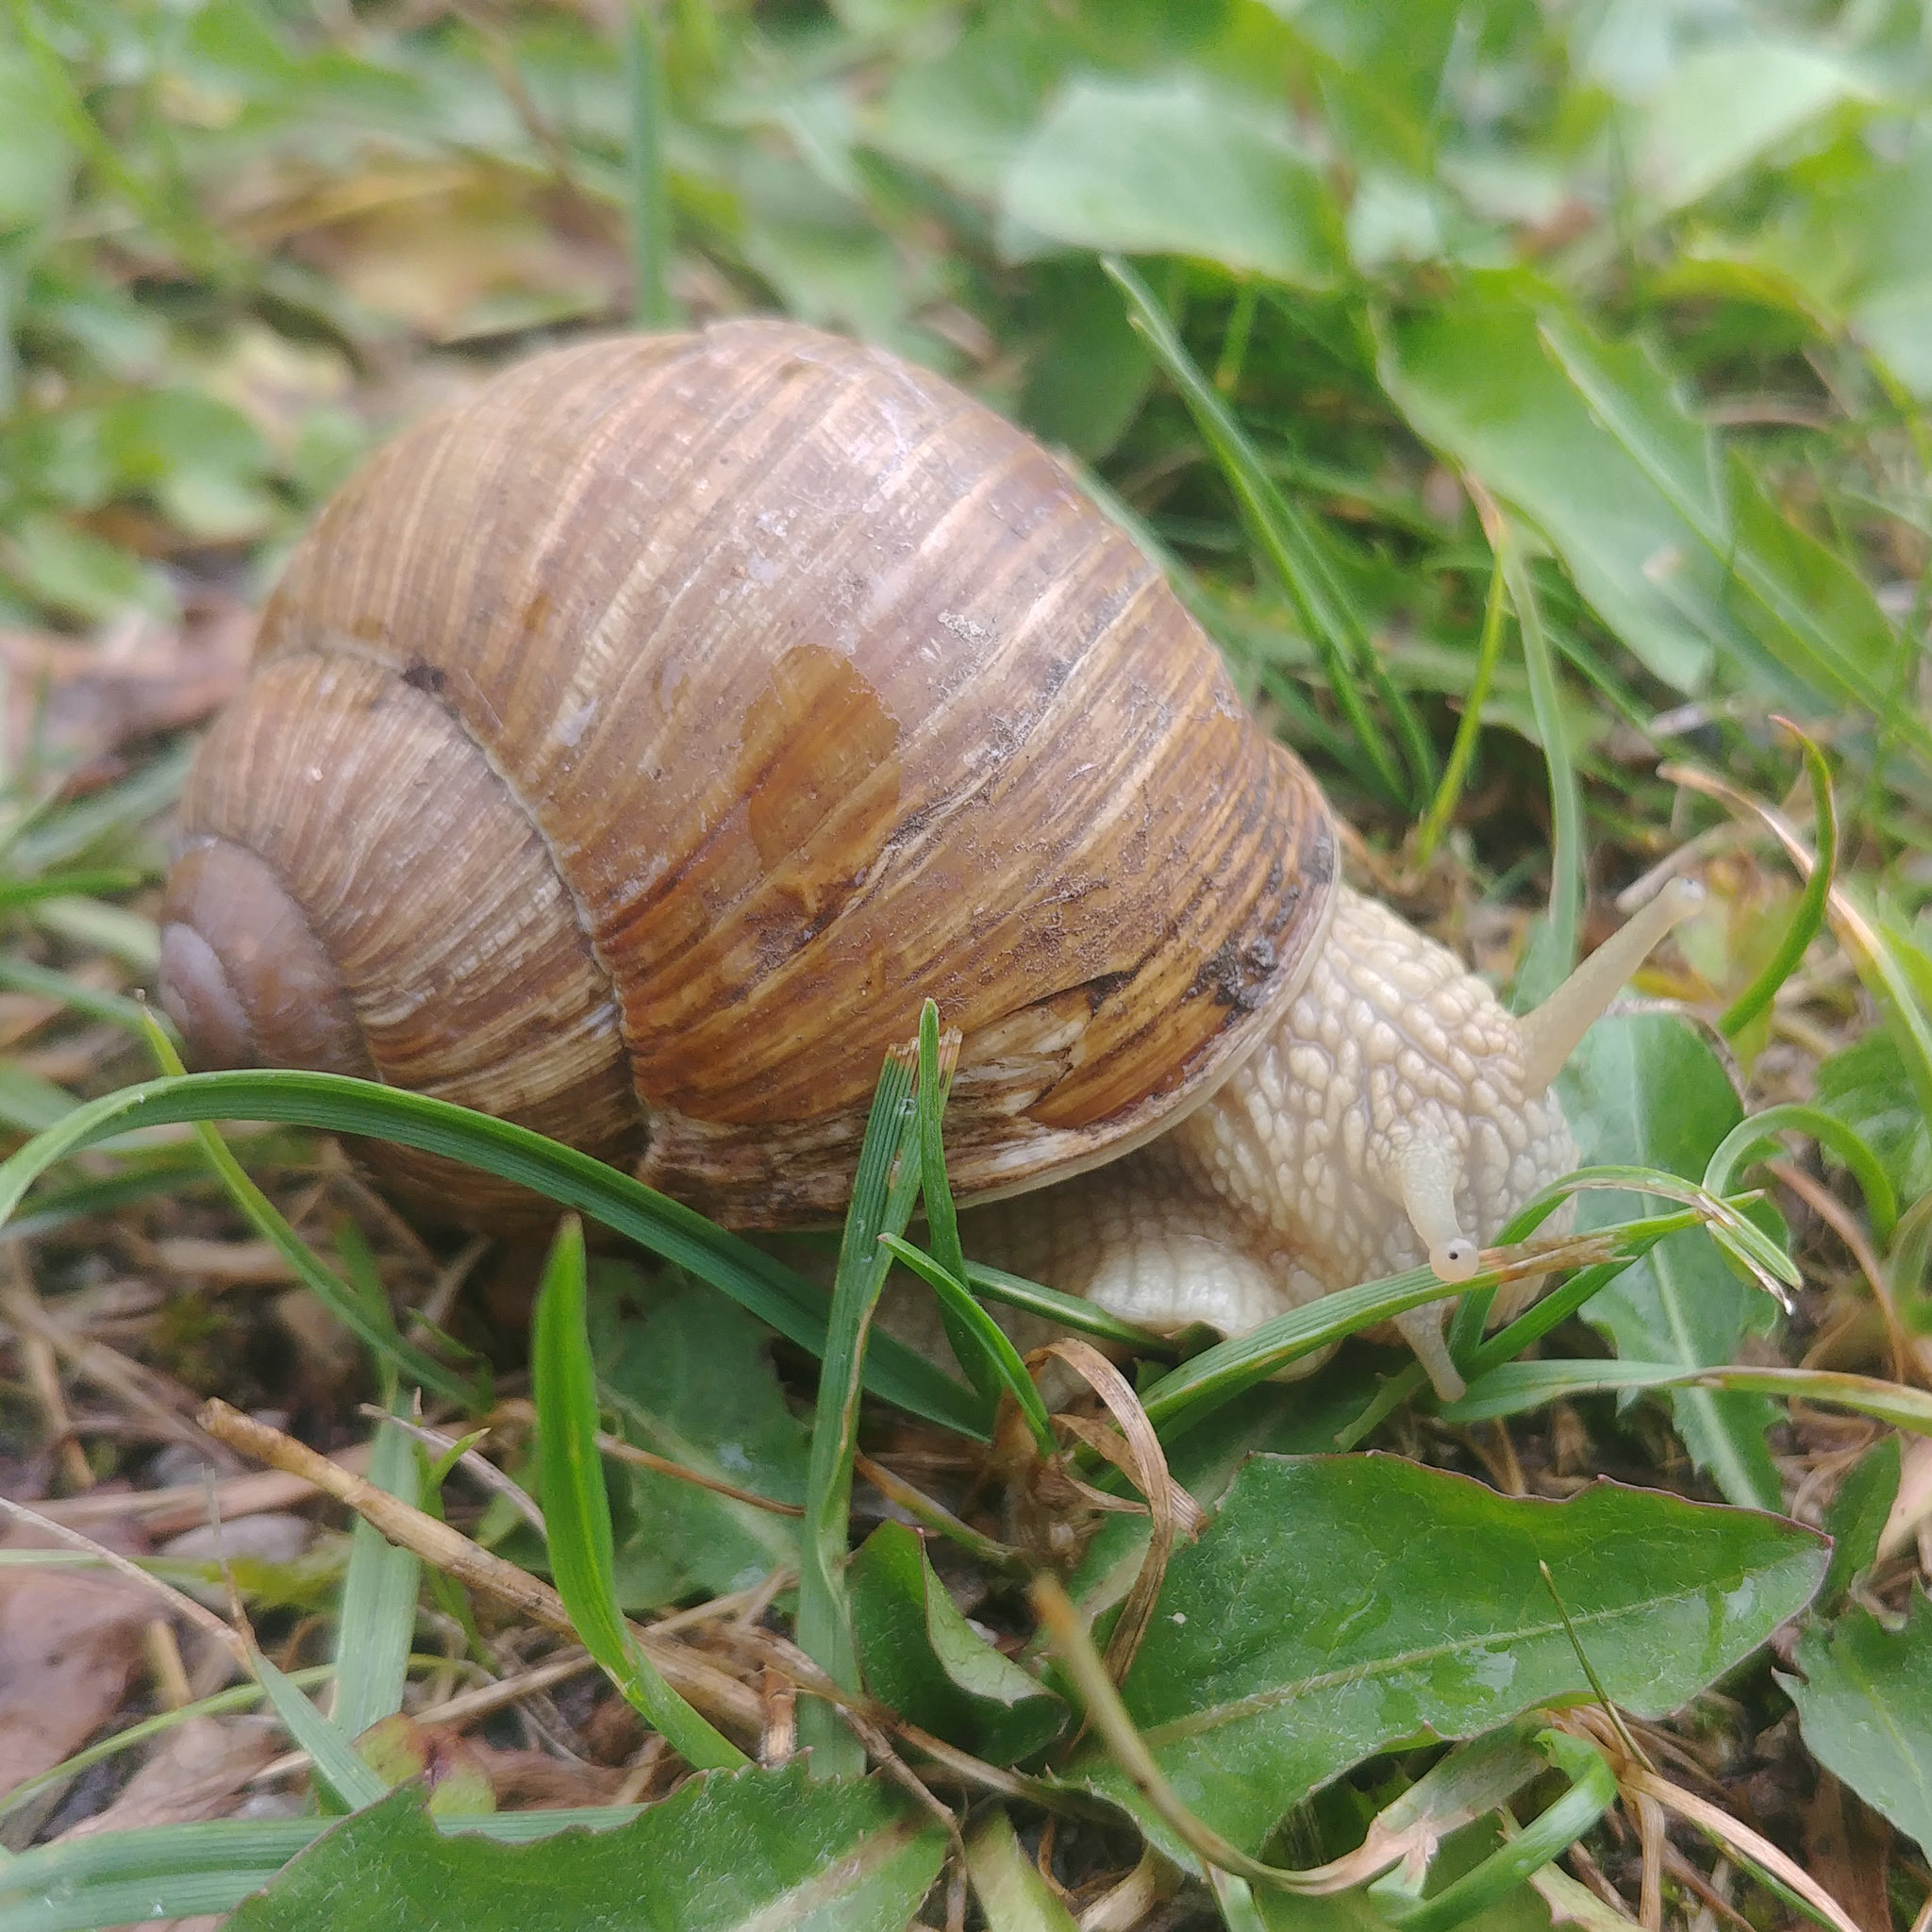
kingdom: Animalia
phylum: Mollusca
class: Gastropoda
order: Stylommatophora
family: Helicidae
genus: Helix
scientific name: Helix pomatia
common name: Roman snail
